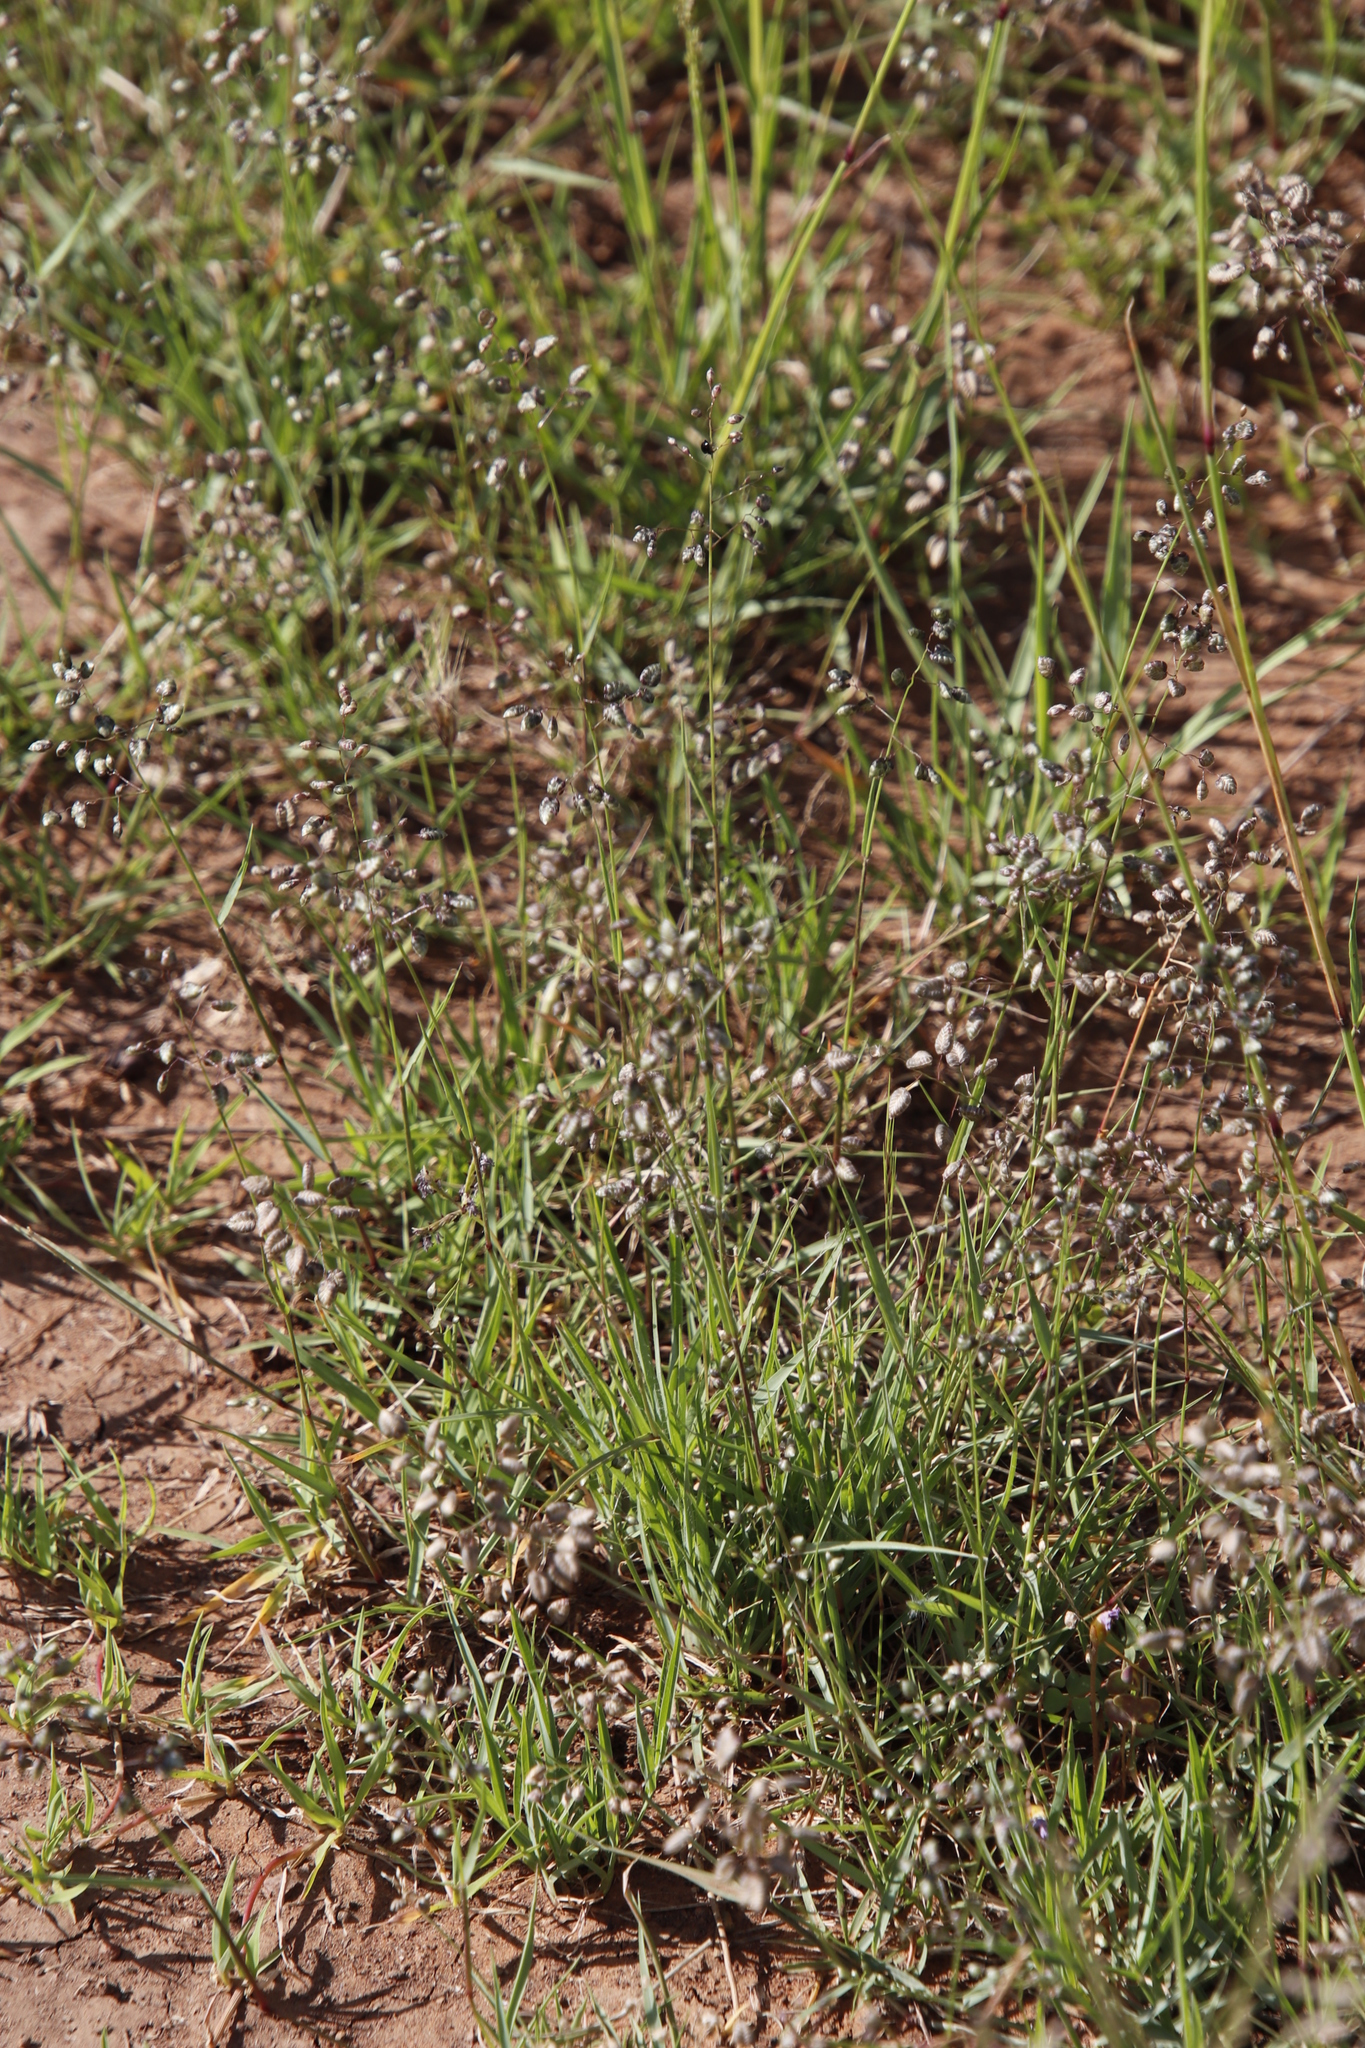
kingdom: Plantae
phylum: Tracheophyta
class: Liliopsida
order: Poales
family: Poaceae
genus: Eragrostis
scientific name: Eragrostis obtusa
